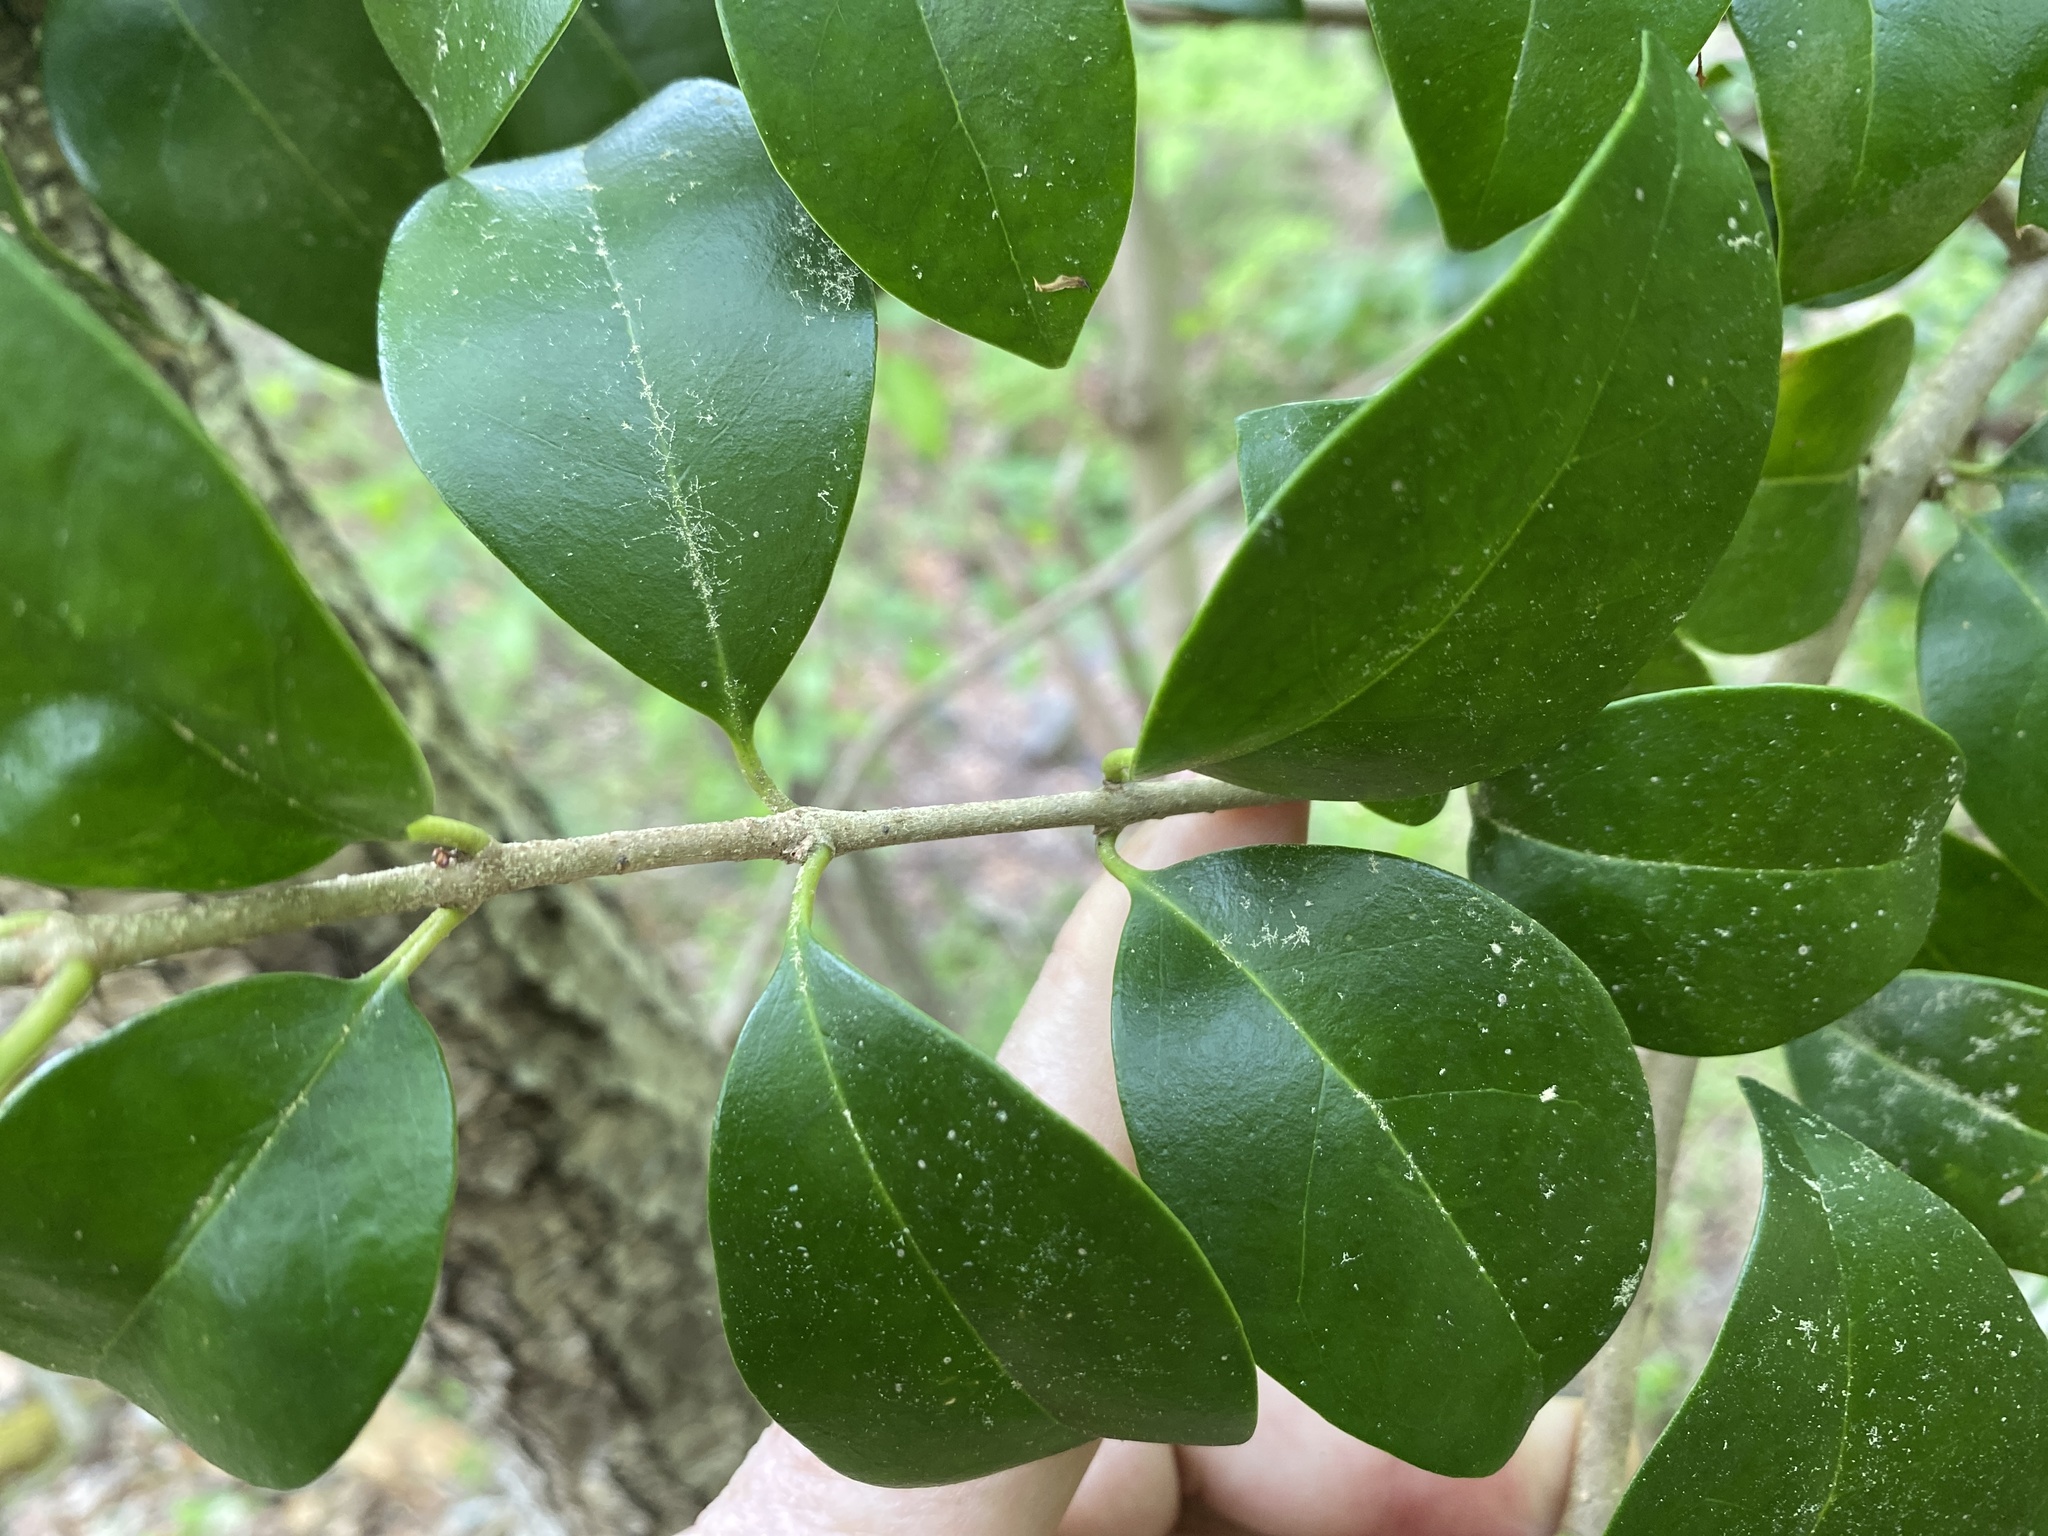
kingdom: Plantae
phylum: Tracheophyta
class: Magnoliopsida
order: Lamiales
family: Oleaceae
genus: Ligustrum
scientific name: Ligustrum japonicum
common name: Japanese privet
